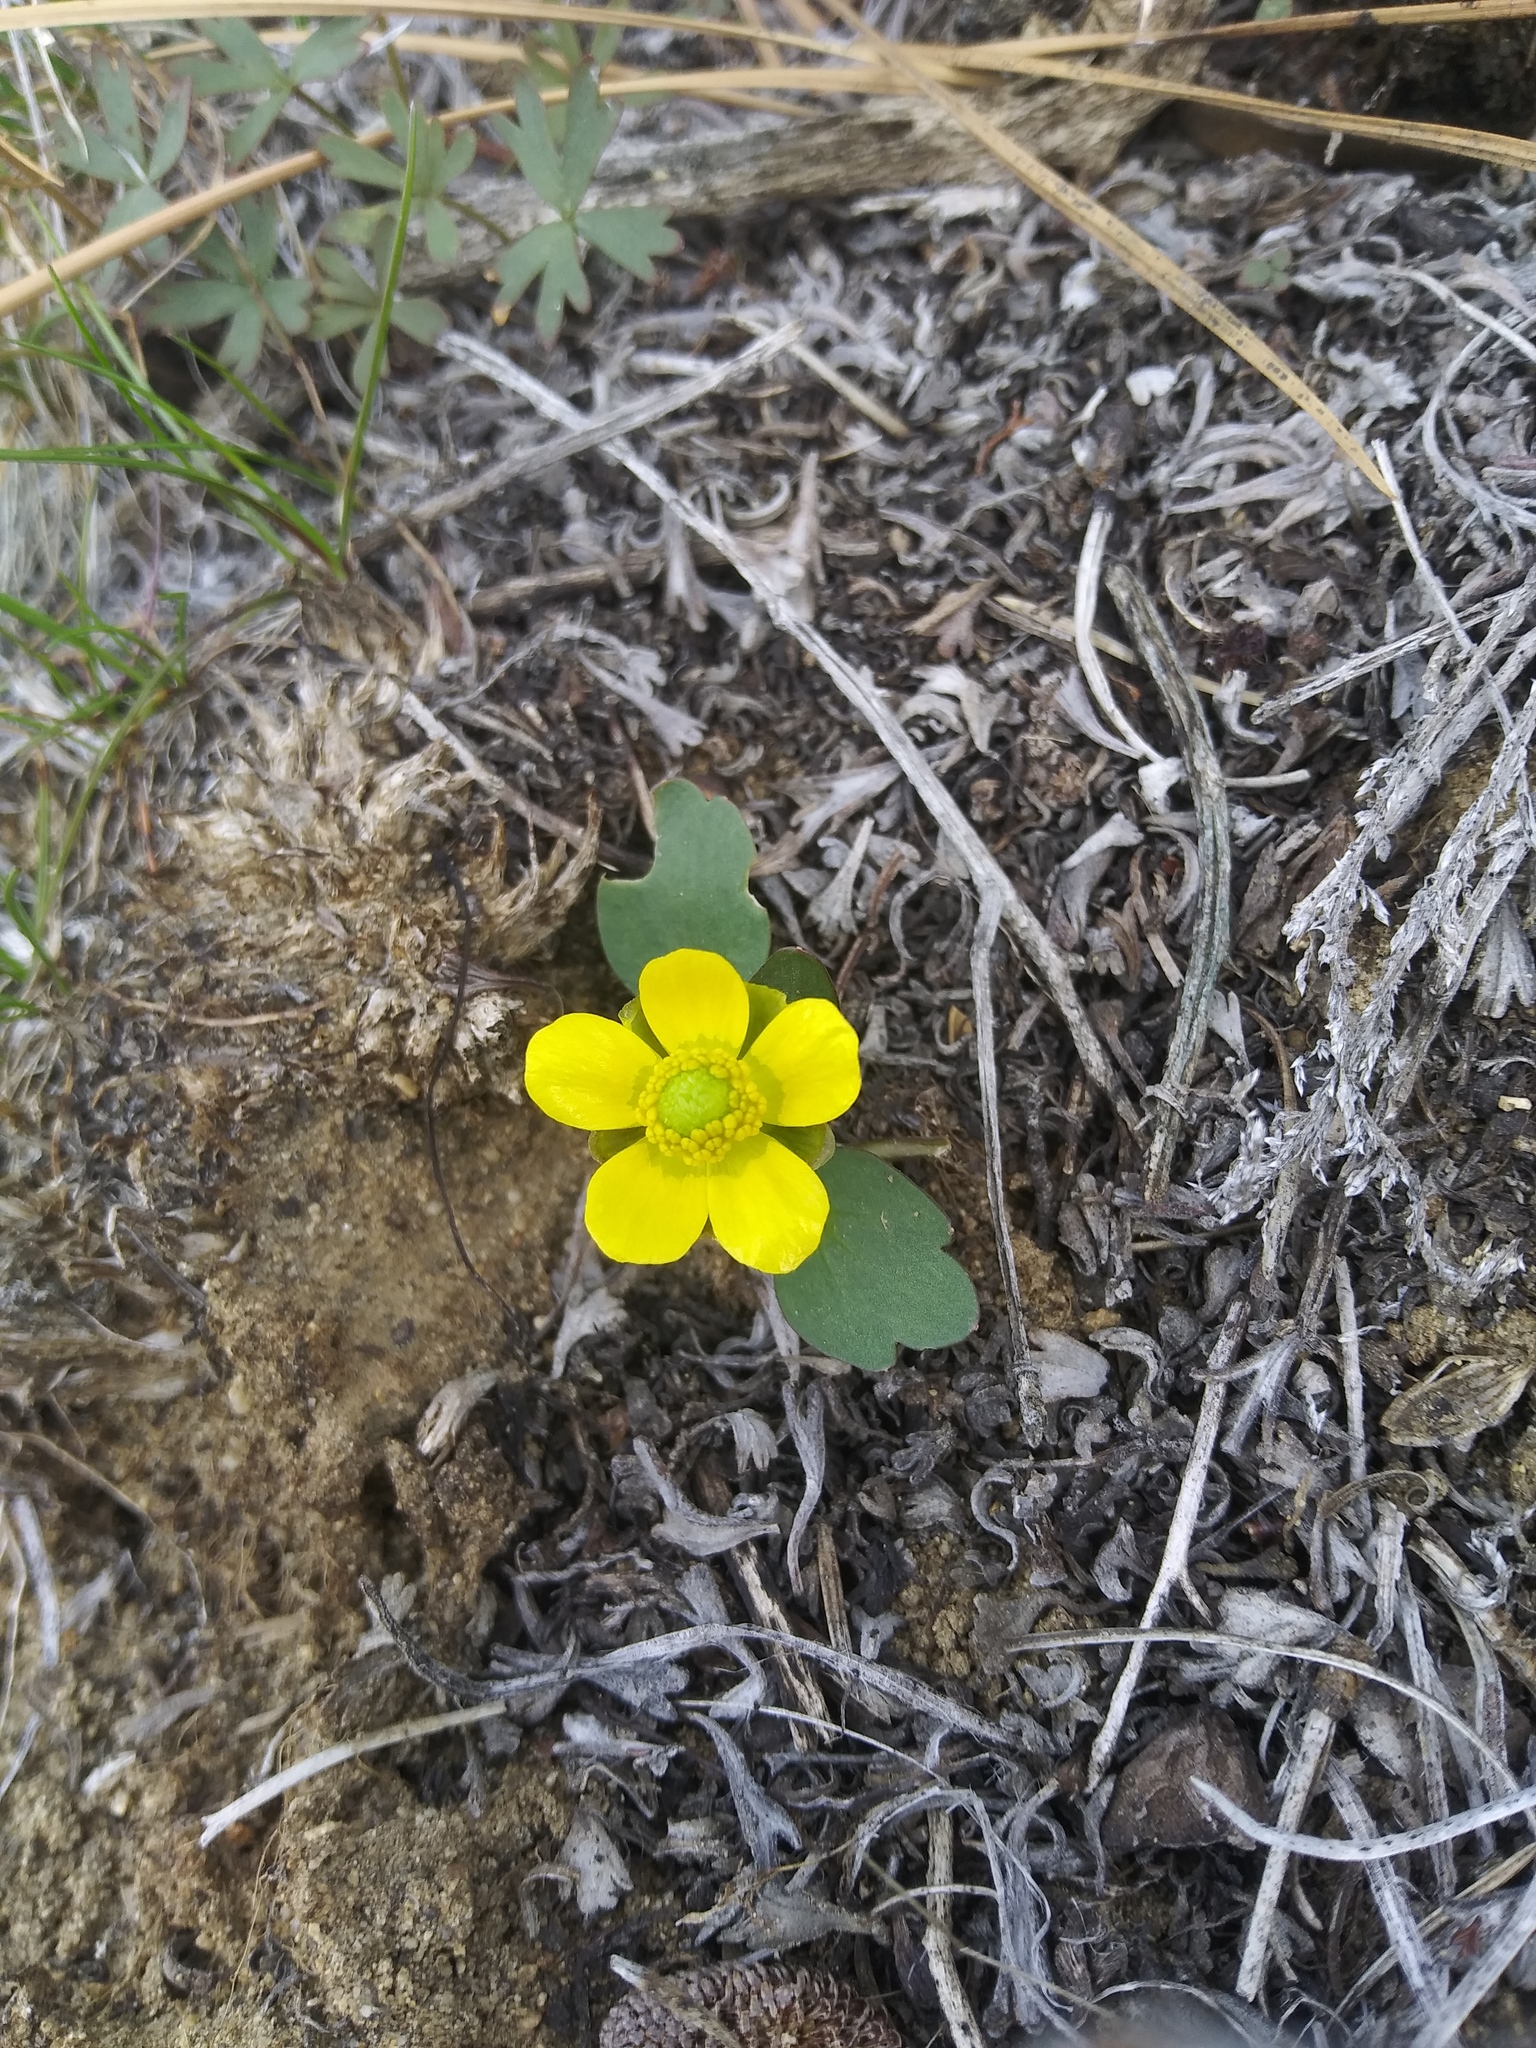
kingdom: Plantae
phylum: Tracheophyta
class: Magnoliopsida
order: Ranunculales
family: Ranunculaceae
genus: Ranunculus
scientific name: Ranunculus glaberrimus
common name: Sagebrush buttercup
